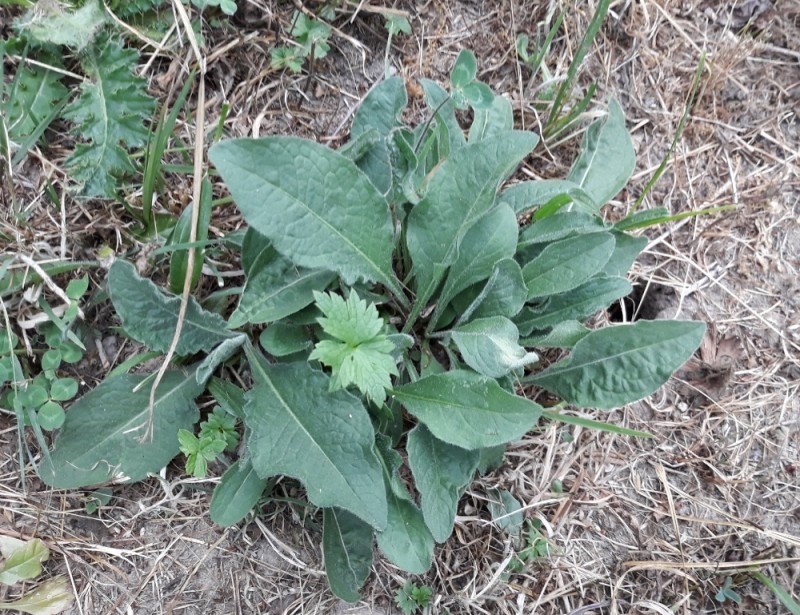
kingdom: Plantae
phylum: Tracheophyta
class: Magnoliopsida
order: Asterales
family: Asteraceae
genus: Centaurea
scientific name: Centaurea jacea
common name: Brown knapweed
